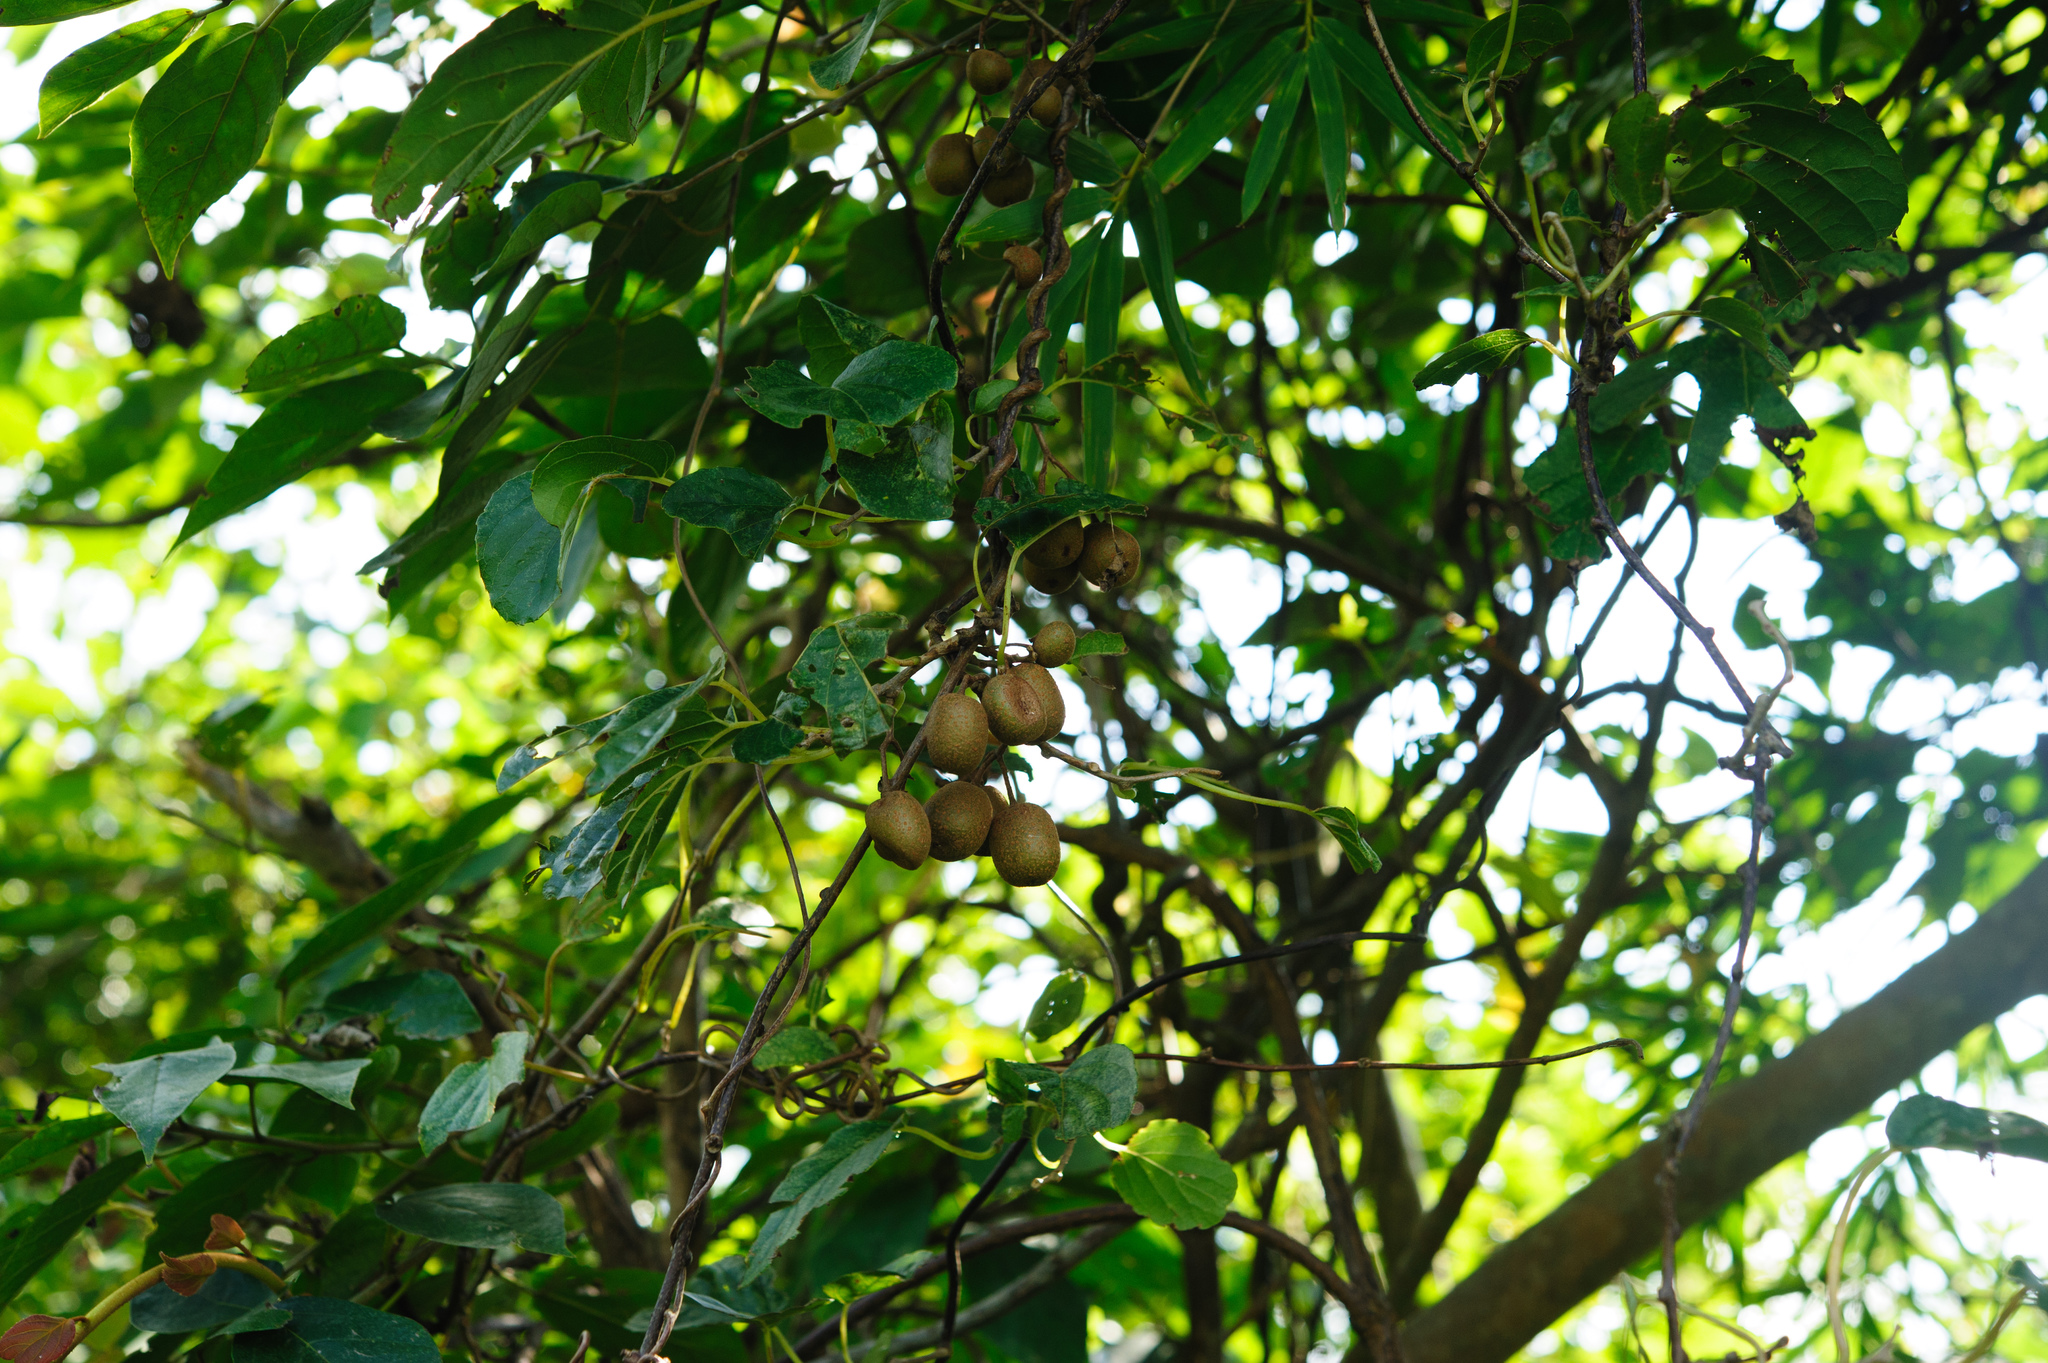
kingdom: Plantae
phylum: Tracheophyta
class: Magnoliopsida
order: Ericales
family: Actinidiaceae
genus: Actinidia
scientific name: Actinidia rufa
